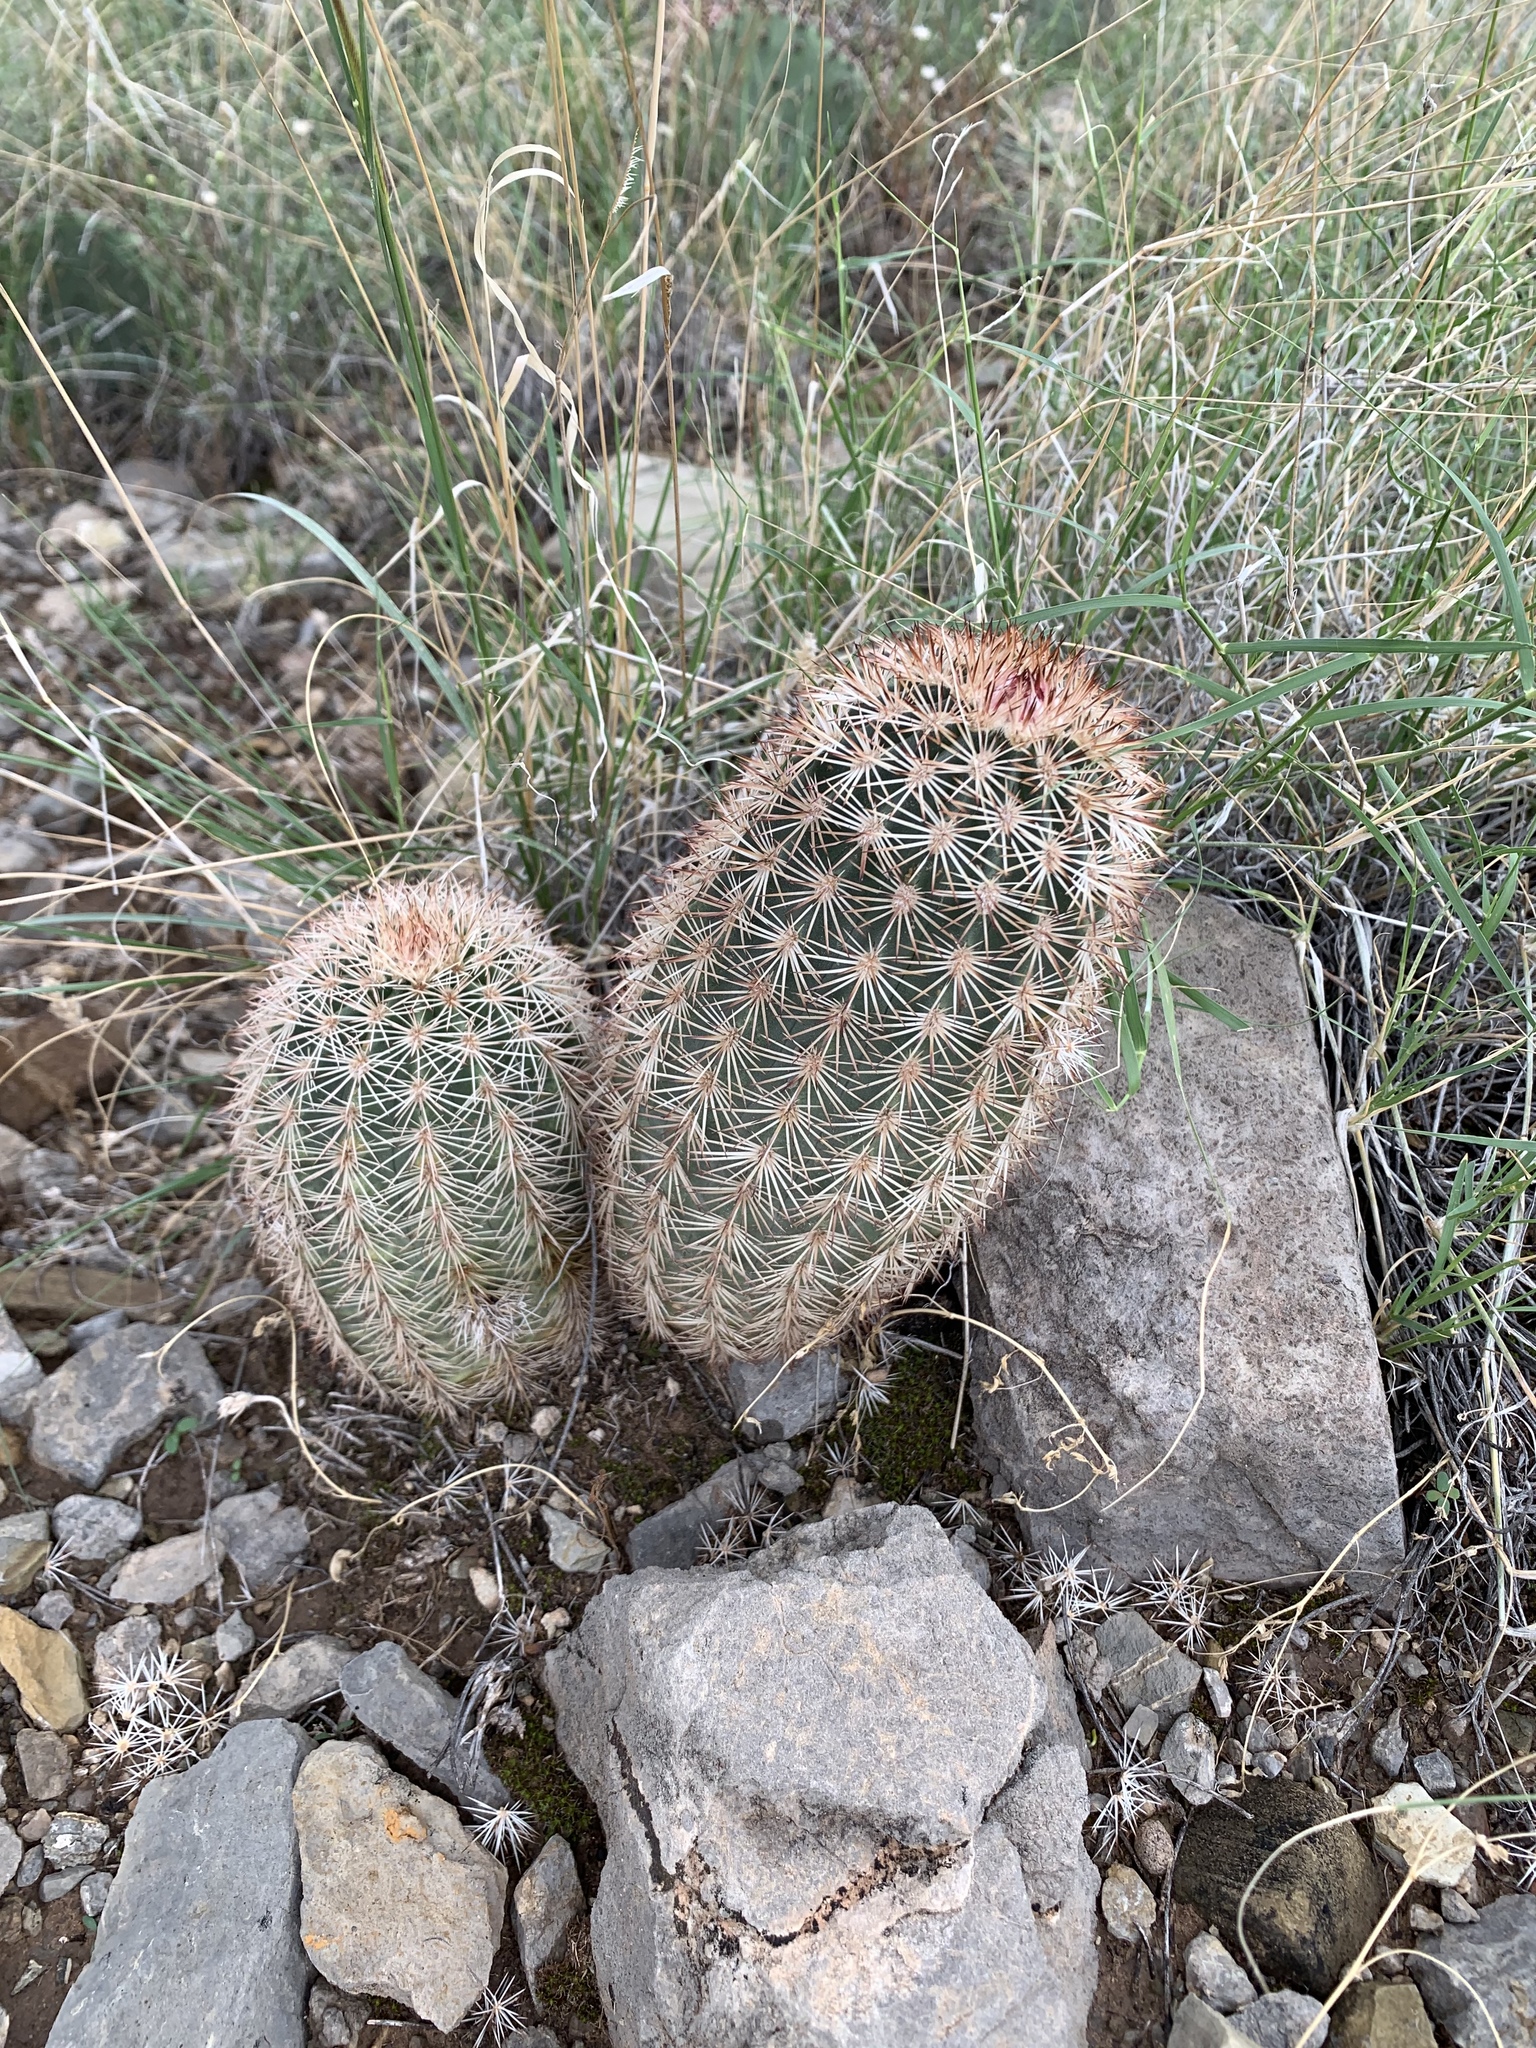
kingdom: Plantae
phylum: Tracheophyta
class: Magnoliopsida
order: Caryophyllales
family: Cactaceae
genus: Echinocereus
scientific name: Echinocereus dasyacanthus
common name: Spiny hedgehog cactus
